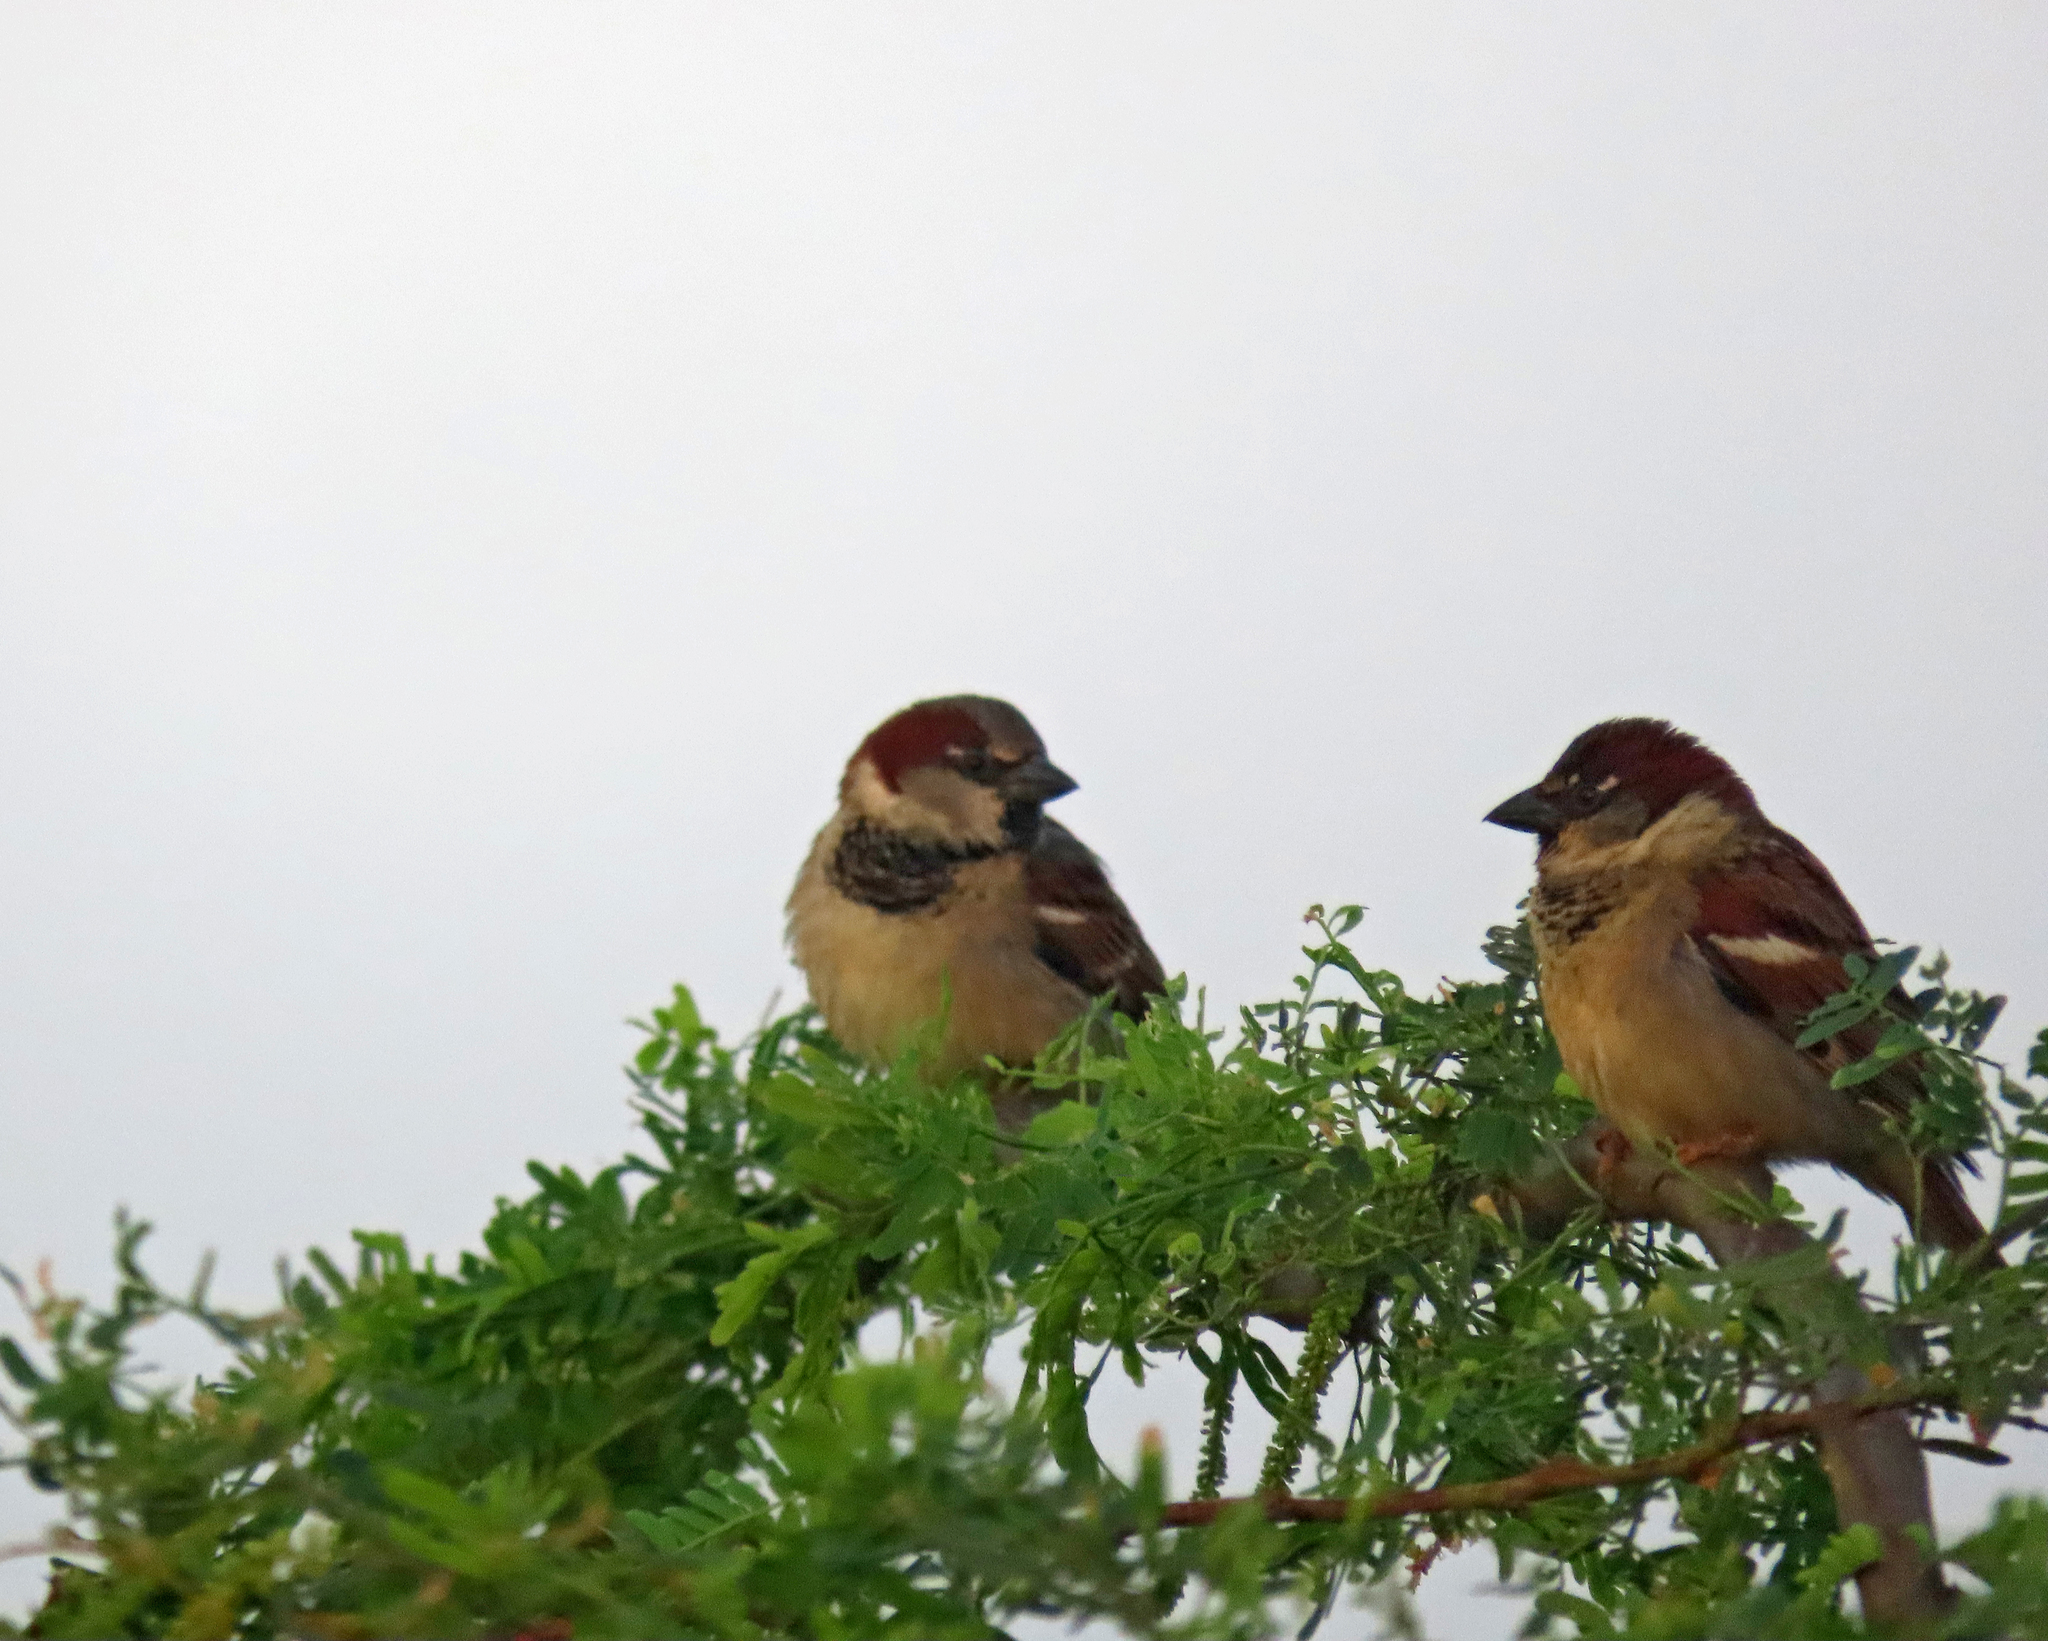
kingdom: Animalia
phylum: Chordata
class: Aves
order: Passeriformes
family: Passeridae
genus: Passer
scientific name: Passer domesticus
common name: House sparrow
